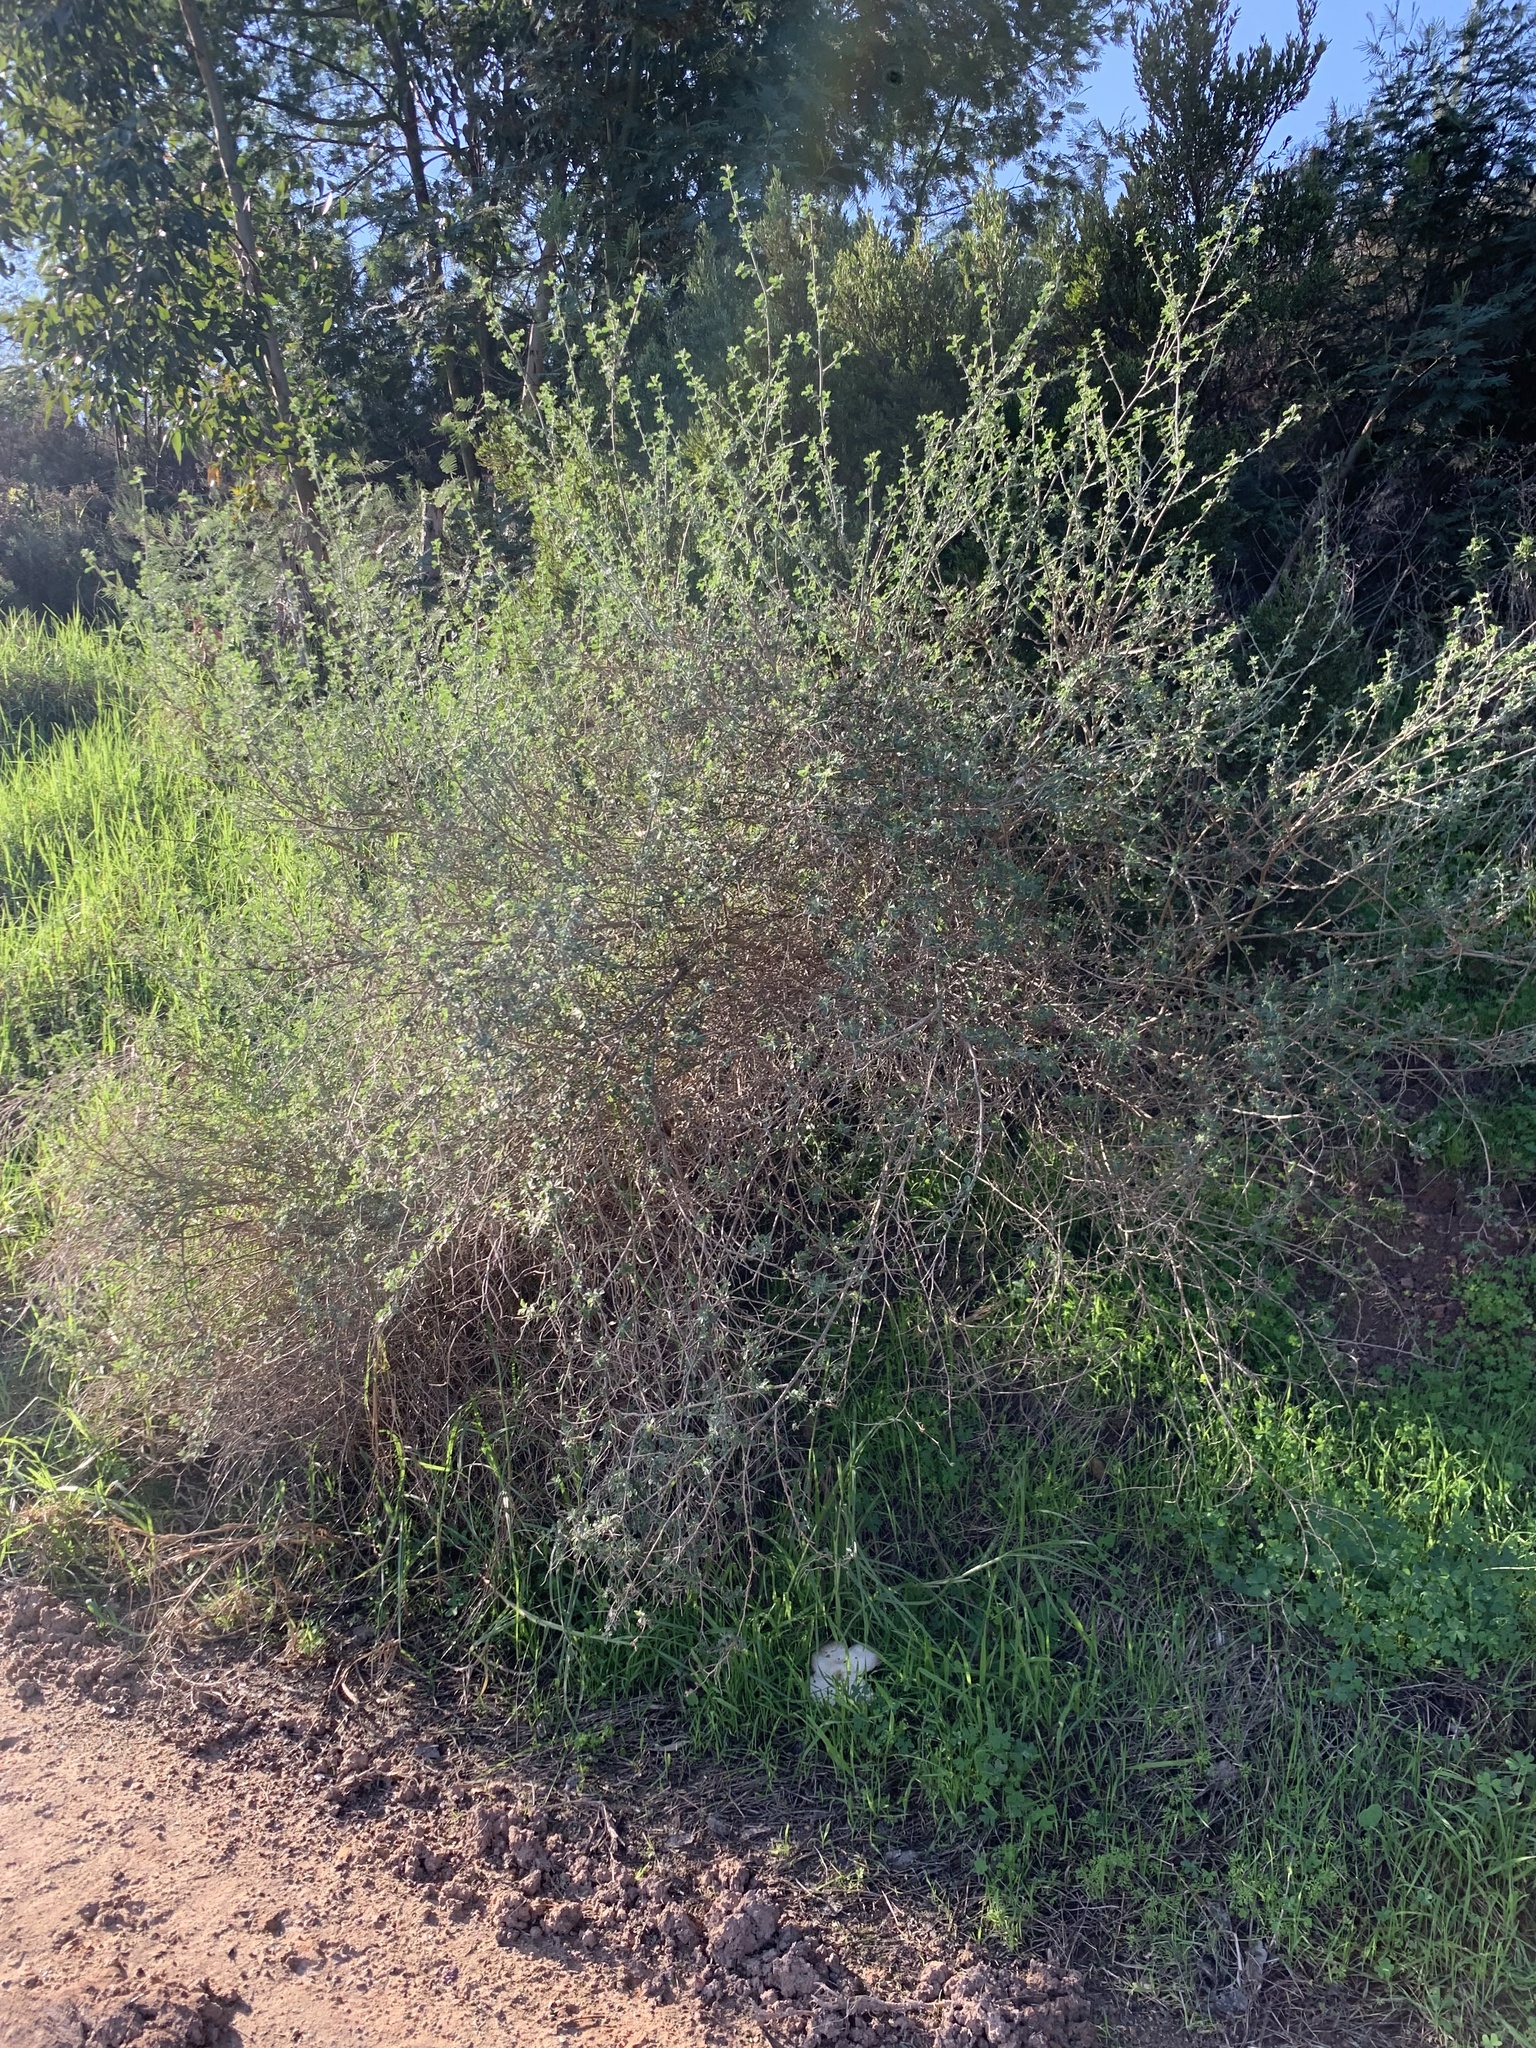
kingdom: Plantae
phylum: Tracheophyta
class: Magnoliopsida
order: Fabales
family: Fabaceae
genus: Psoralea
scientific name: Psoralea hirta
